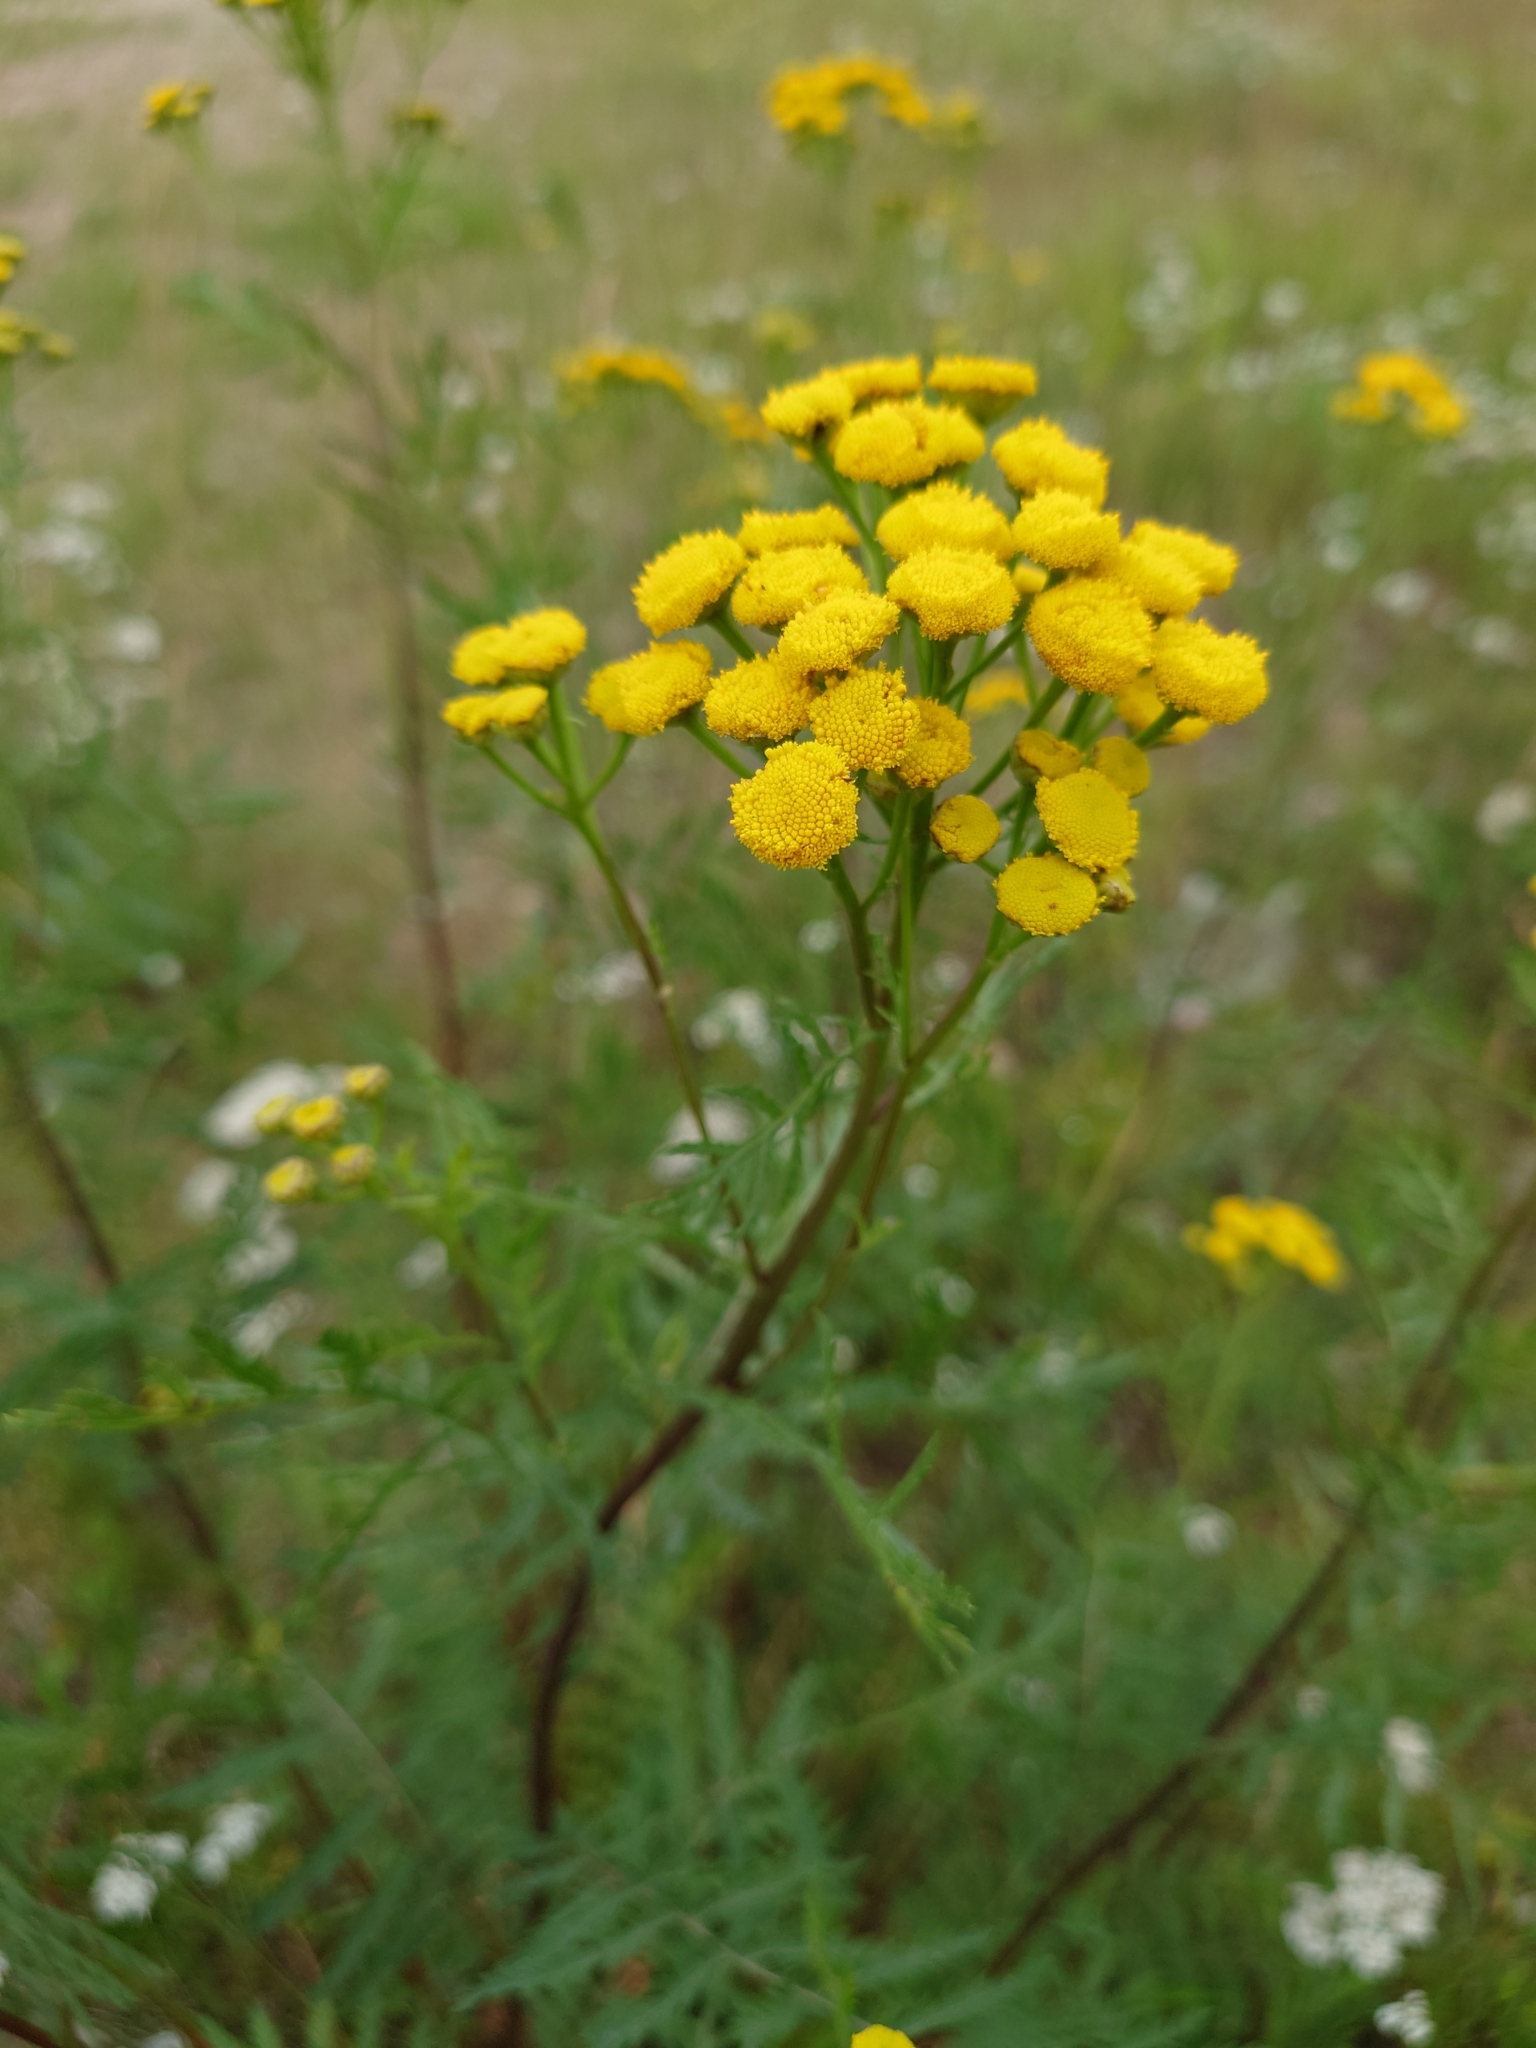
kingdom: Plantae
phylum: Tracheophyta
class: Magnoliopsida
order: Asterales
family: Asteraceae
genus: Tanacetum
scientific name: Tanacetum vulgare
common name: Common tansy
